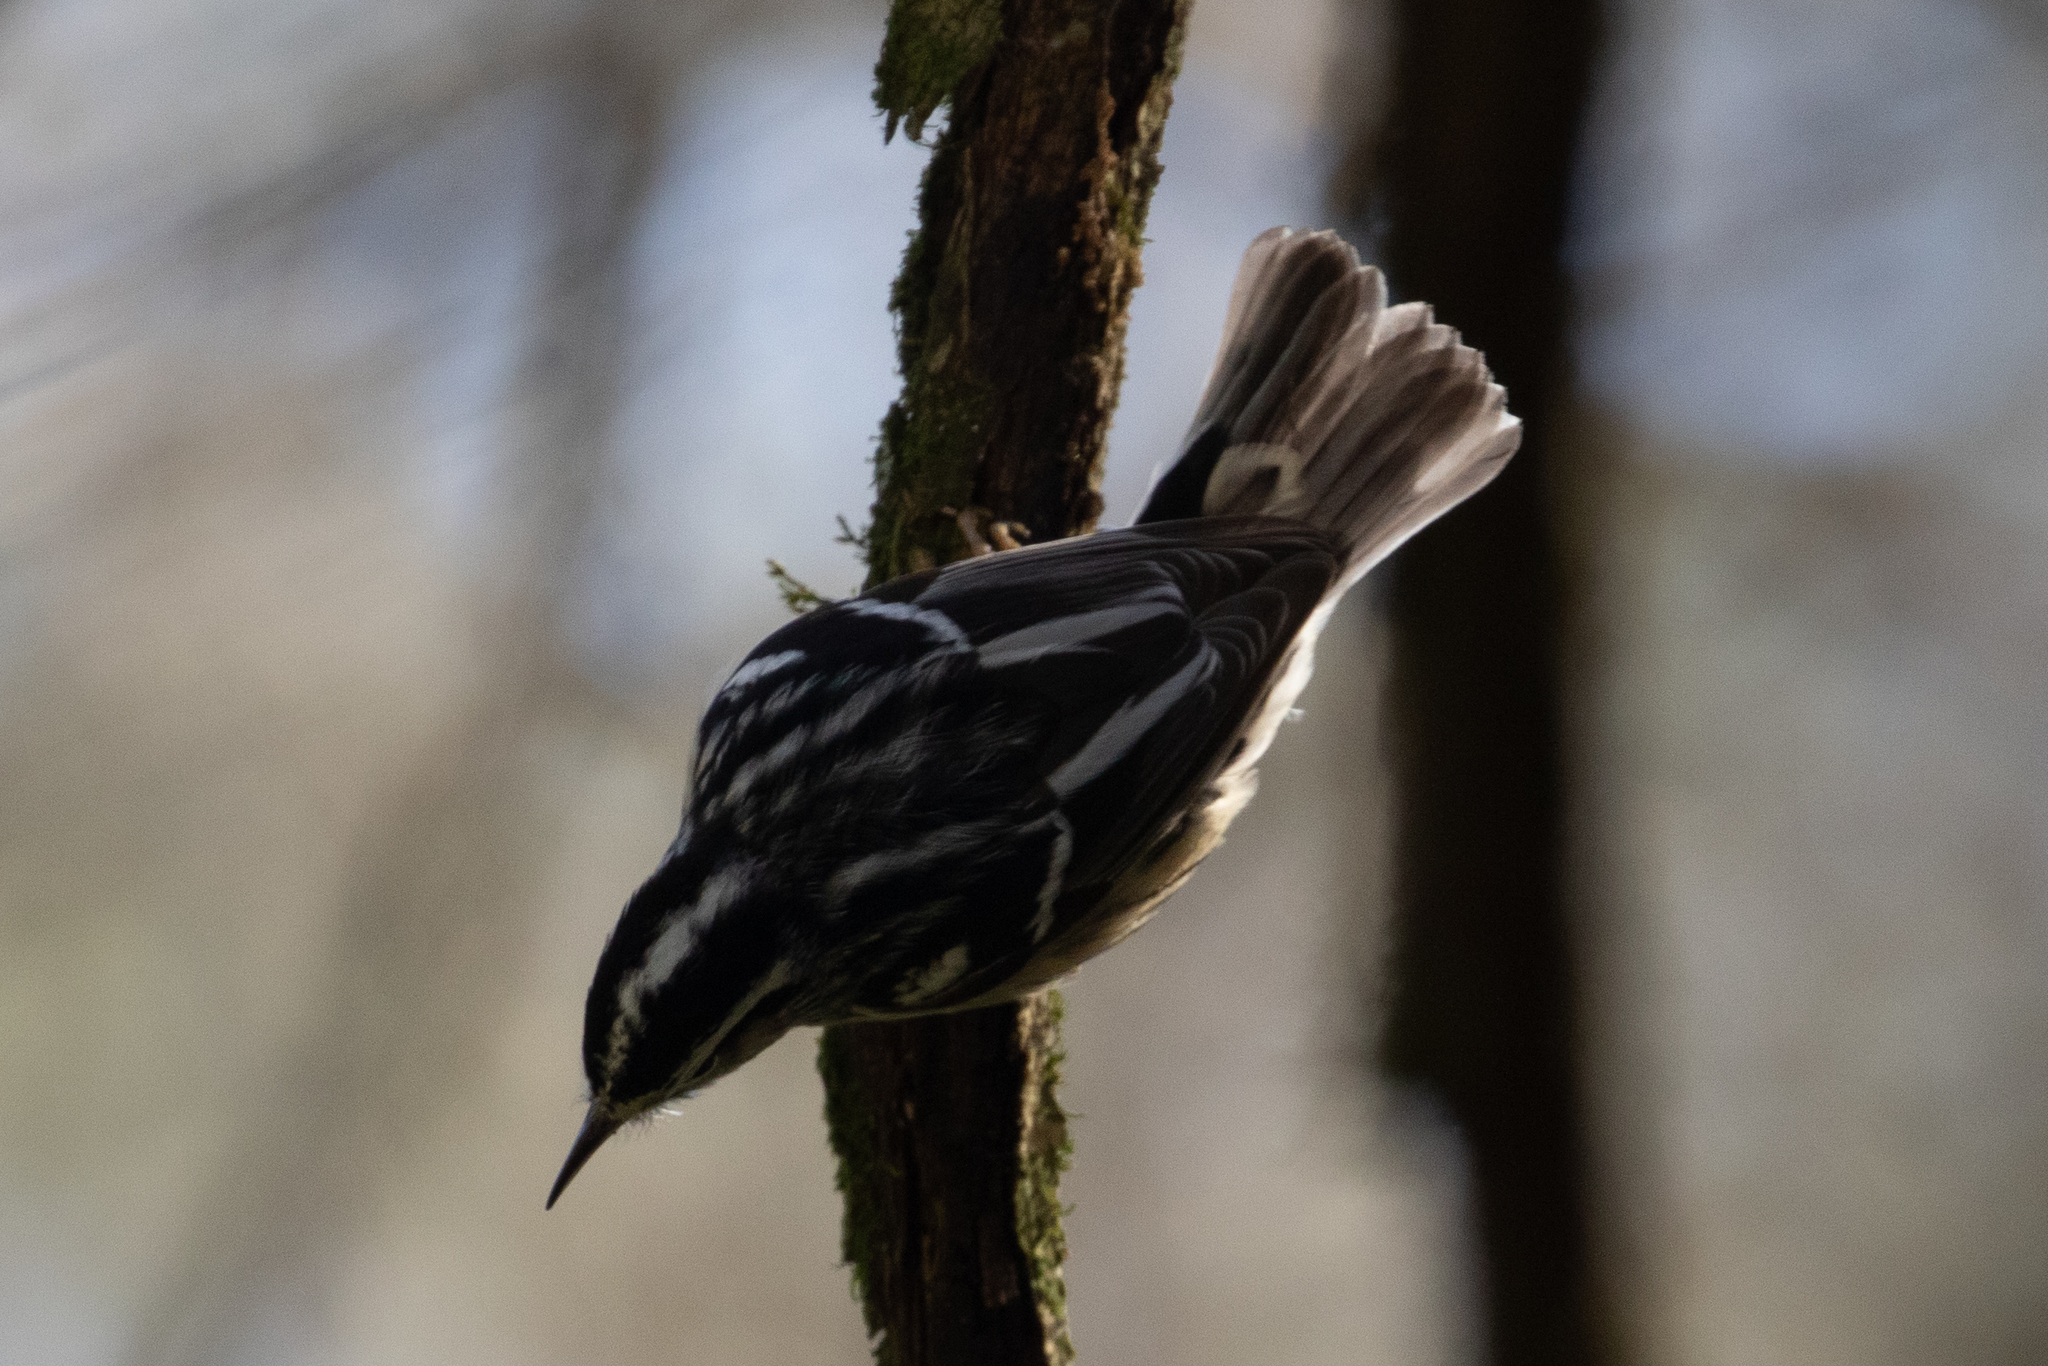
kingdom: Animalia
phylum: Chordata
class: Aves
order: Passeriformes
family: Parulidae
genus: Mniotilta
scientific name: Mniotilta varia
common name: Black-and-white warbler
